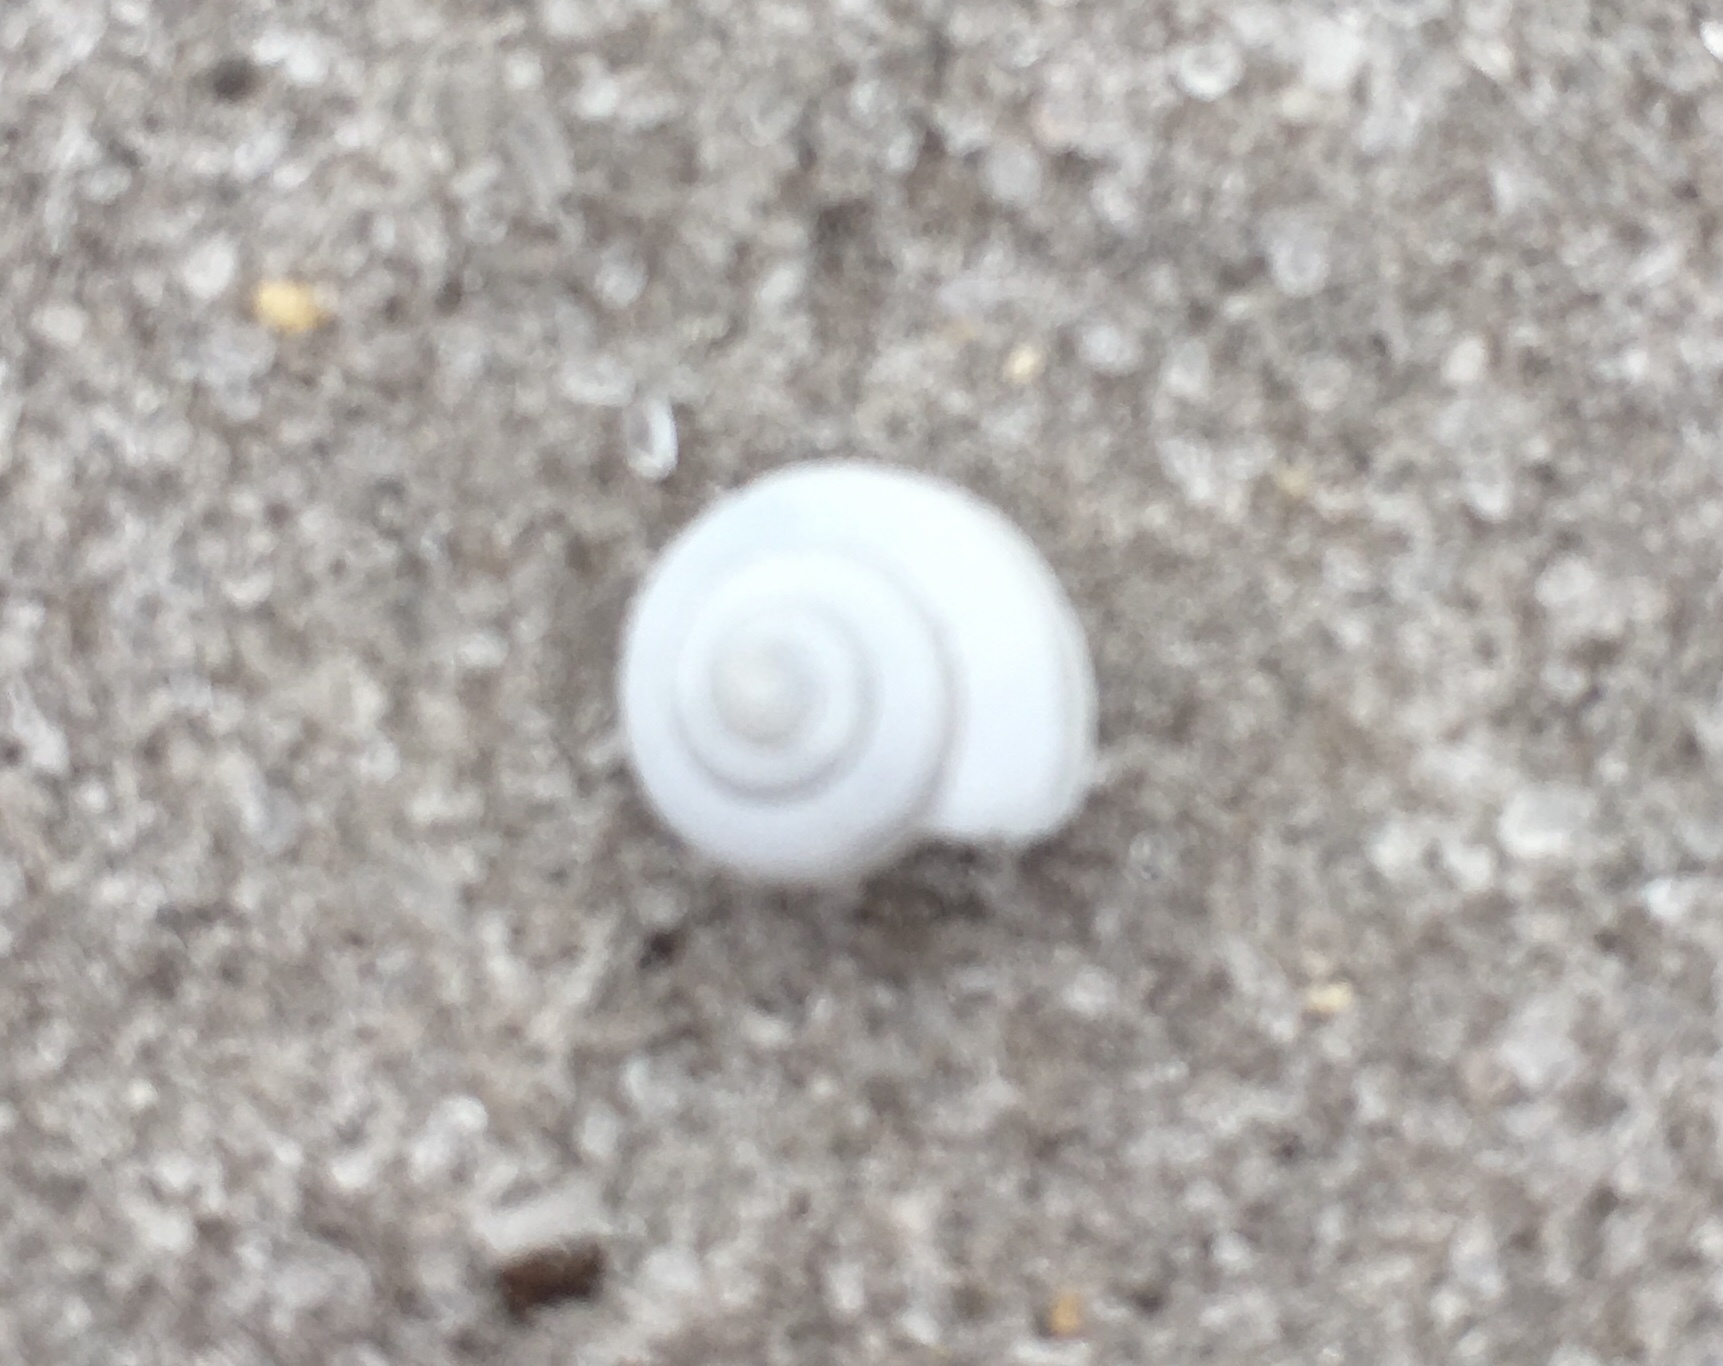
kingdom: Animalia
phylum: Mollusca
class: Gastropoda
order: Stylommatophora
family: Camaenidae
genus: Bradybaena
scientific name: Bradybaena similaris
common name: Asian trampsnail
